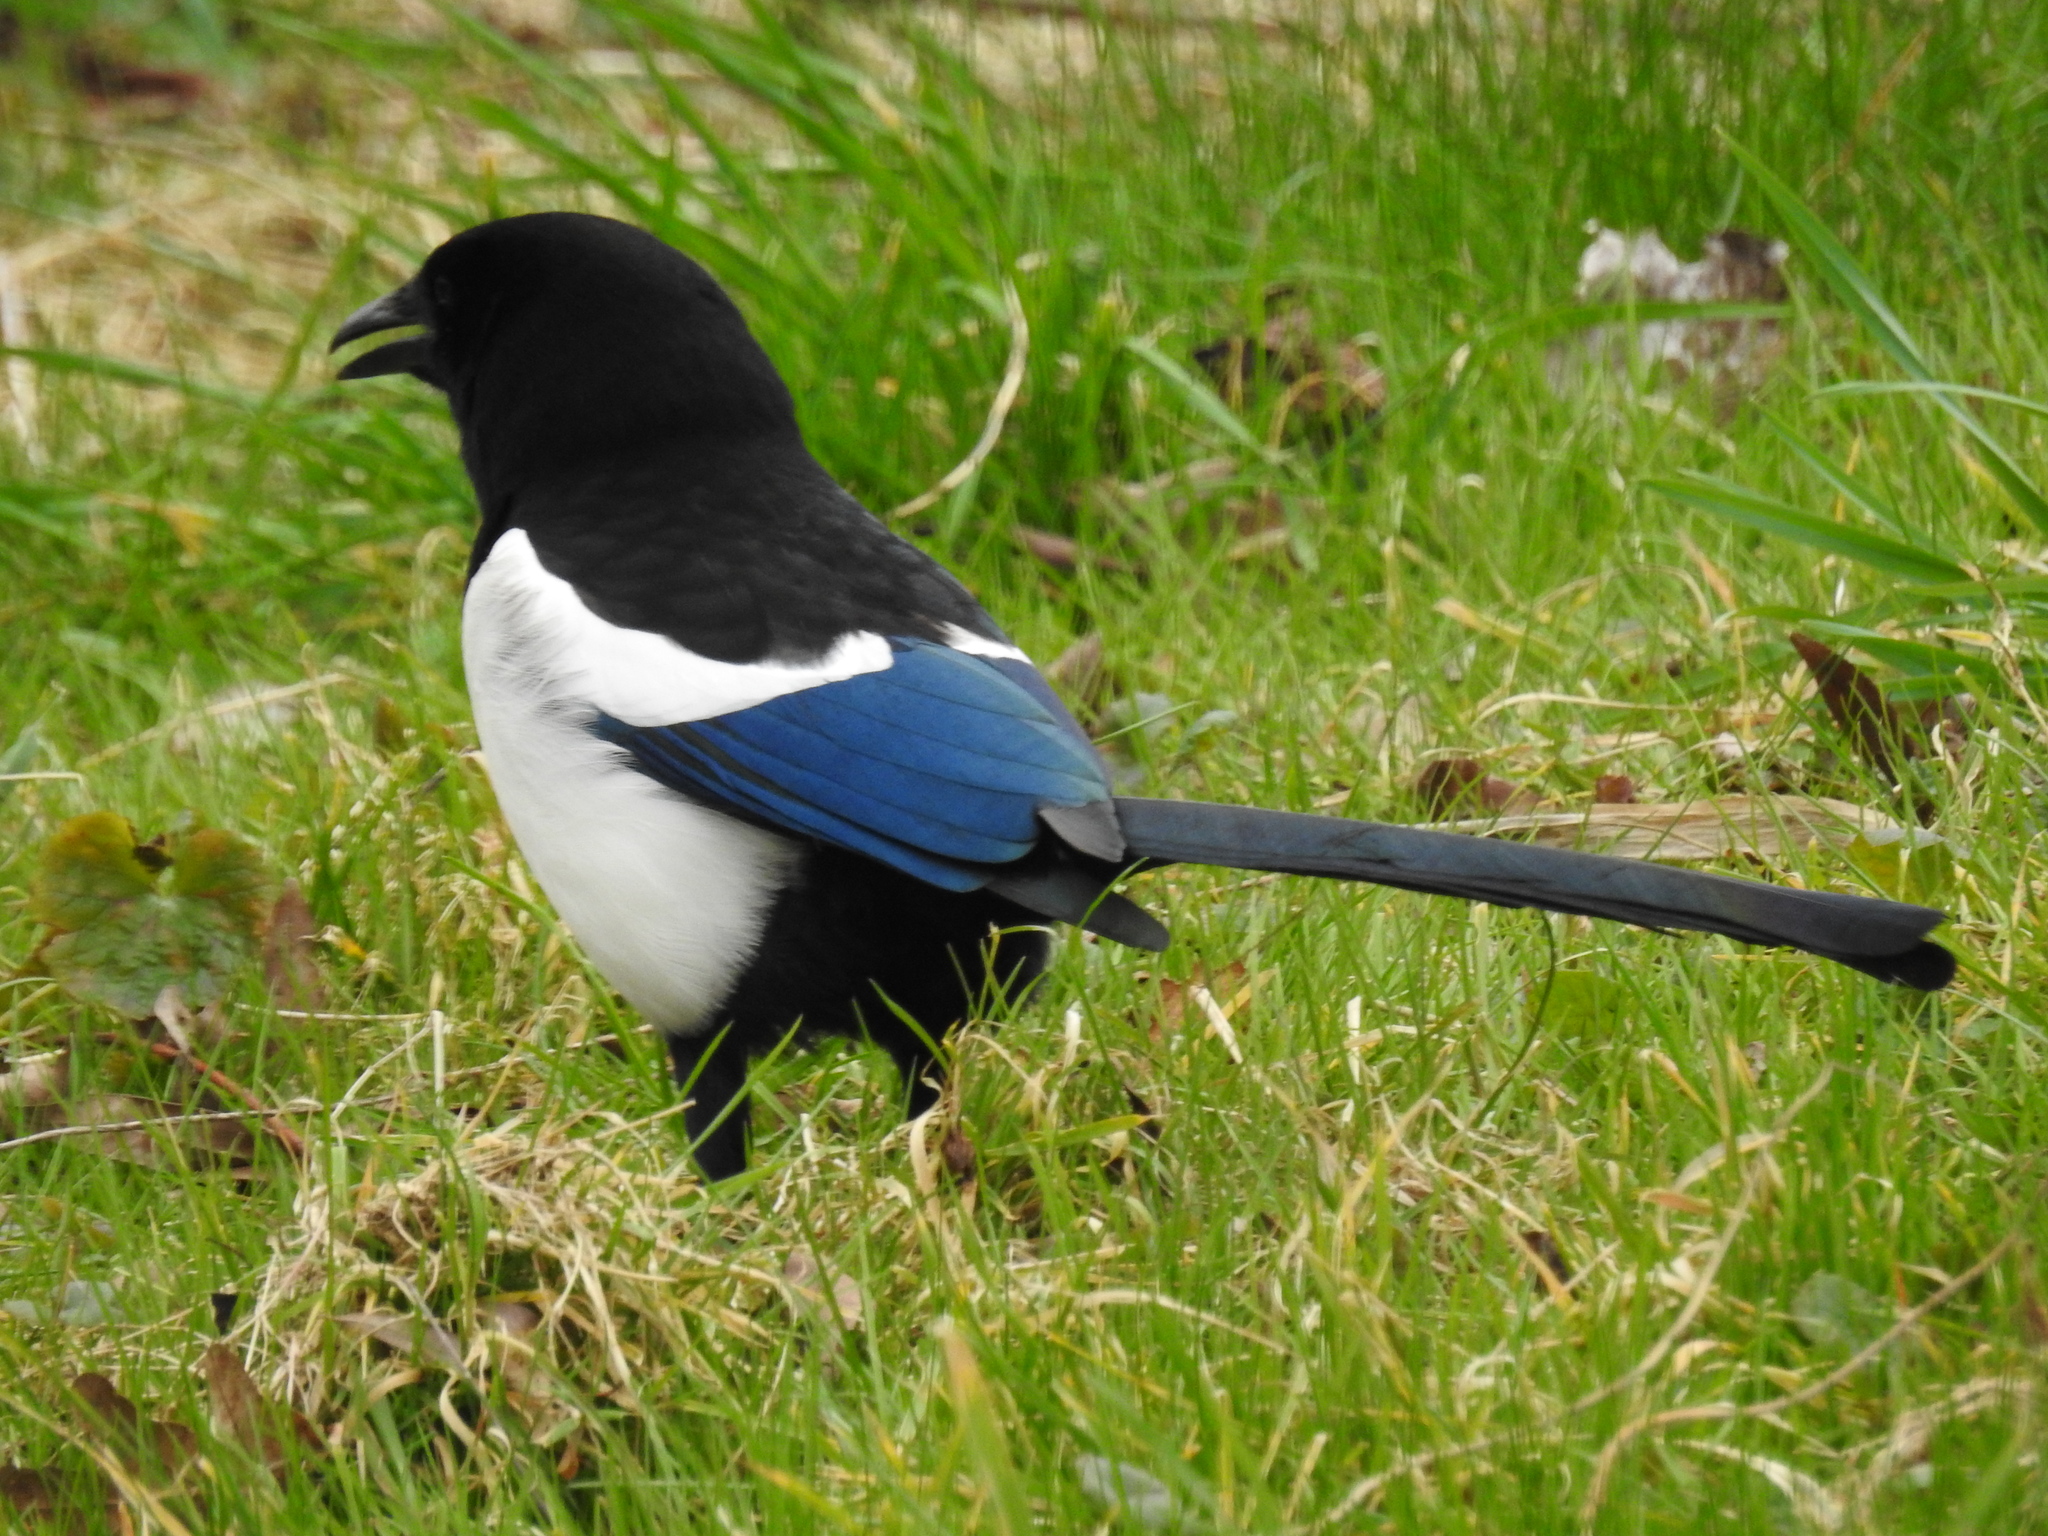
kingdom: Animalia
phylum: Chordata
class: Aves
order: Passeriformes
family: Corvidae
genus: Pica
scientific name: Pica pica
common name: Eurasian magpie
